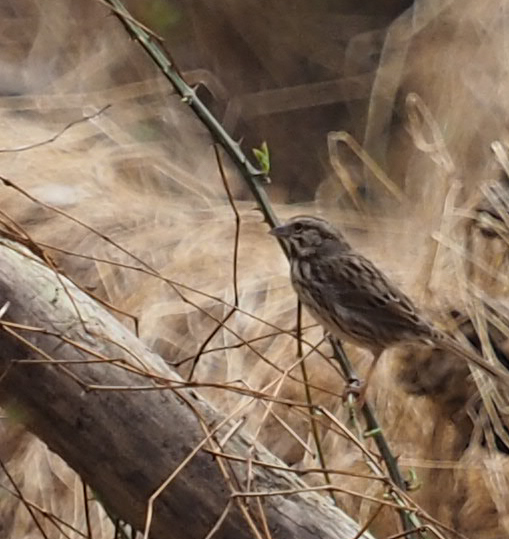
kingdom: Animalia
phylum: Chordata
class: Aves
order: Passeriformes
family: Passerellidae
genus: Melospiza
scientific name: Melospiza melodia
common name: Song sparrow
